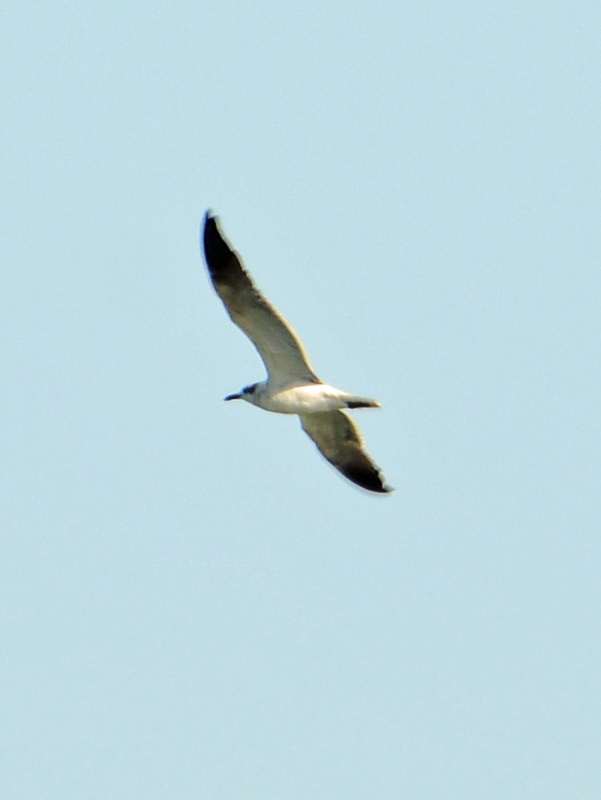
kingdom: Animalia
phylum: Chordata
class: Aves
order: Charadriiformes
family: Laridae
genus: Leucophaeus
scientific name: Leucophaeus atricilla
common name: Laughing gull
